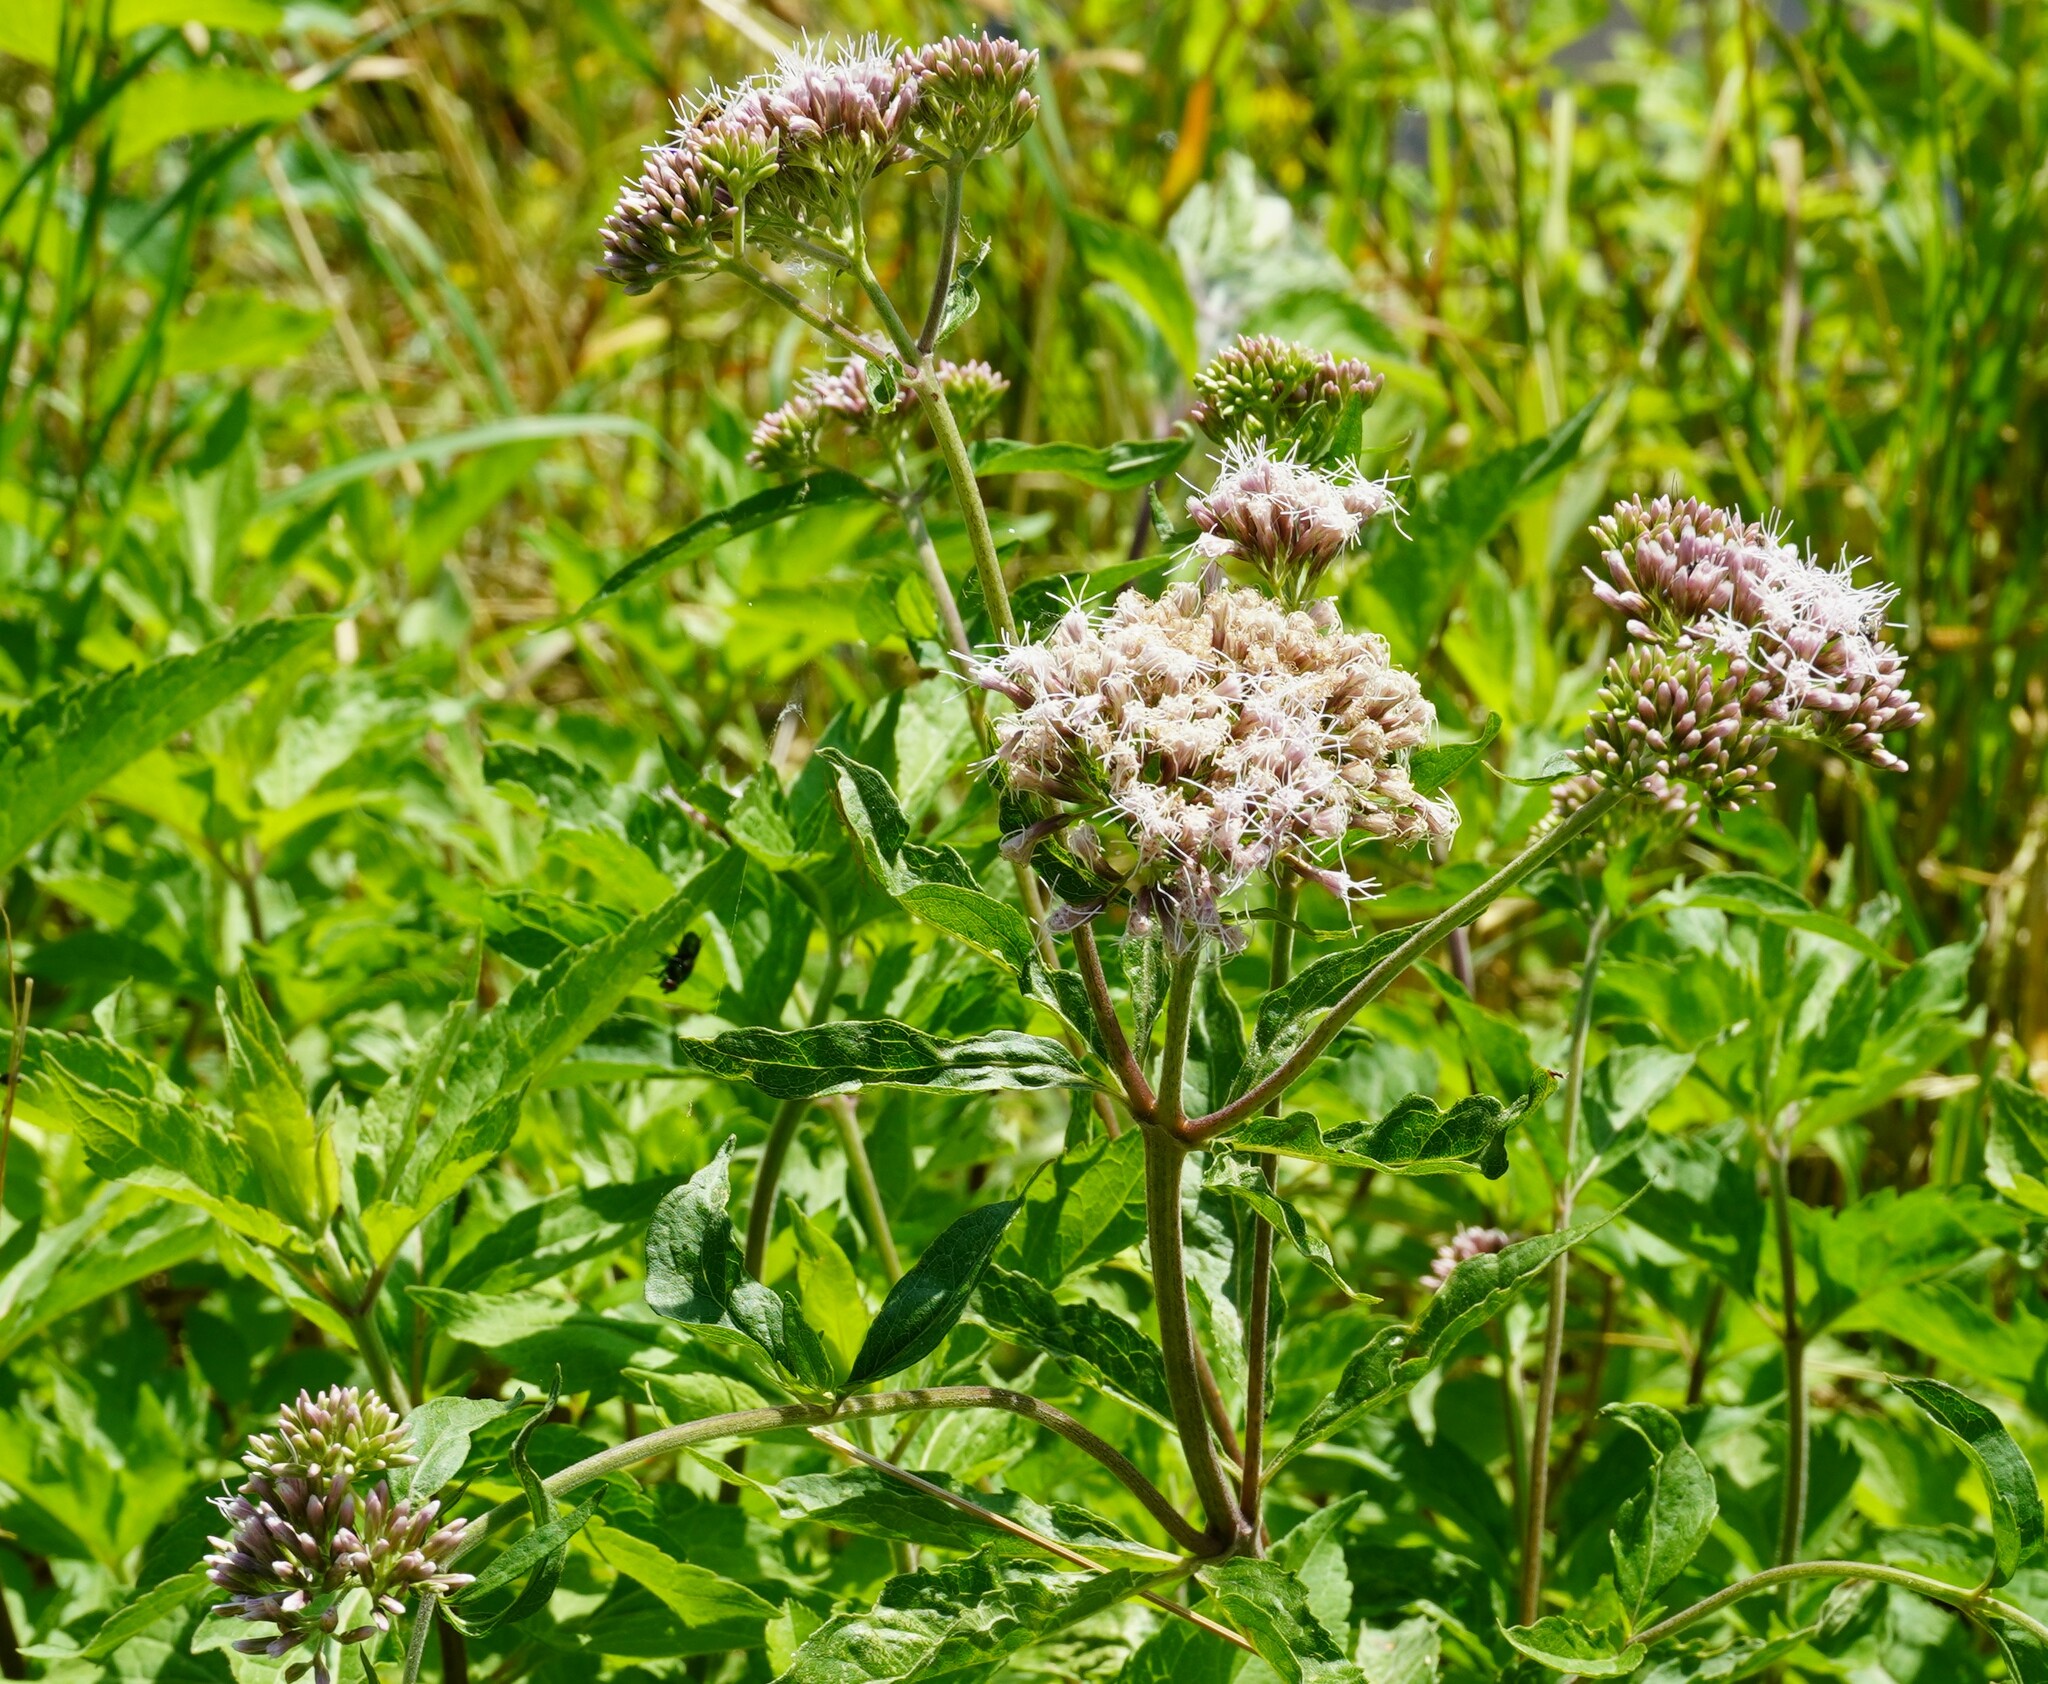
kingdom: Plantae
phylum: Tracheophyta
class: Magnoliopsida
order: Asterales
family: Asteraceae
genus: Eupatorium
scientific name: Eupatorium cannabinum
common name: Hemp-agrimony
